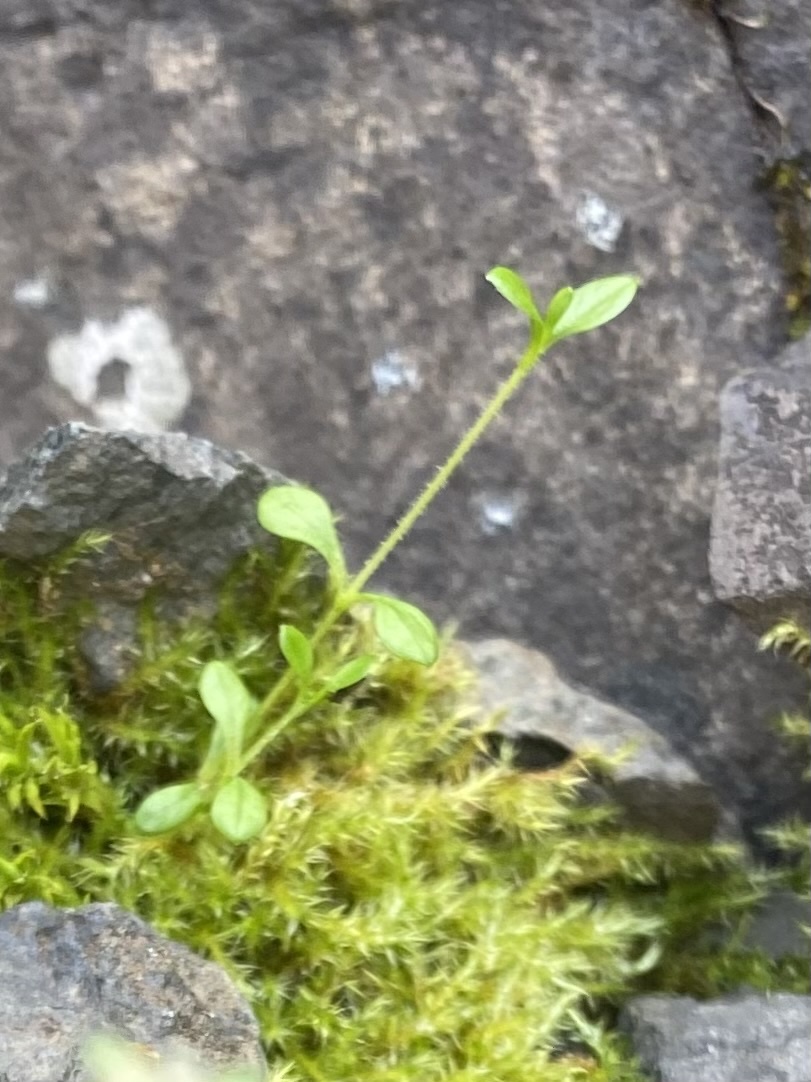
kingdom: Plantae
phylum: Tracheophyta
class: Magnoliopsida
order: Caryophyllales
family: Caryophyllaceae
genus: Cerastium
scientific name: Cerastium regelii
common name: Regel's chickweed
